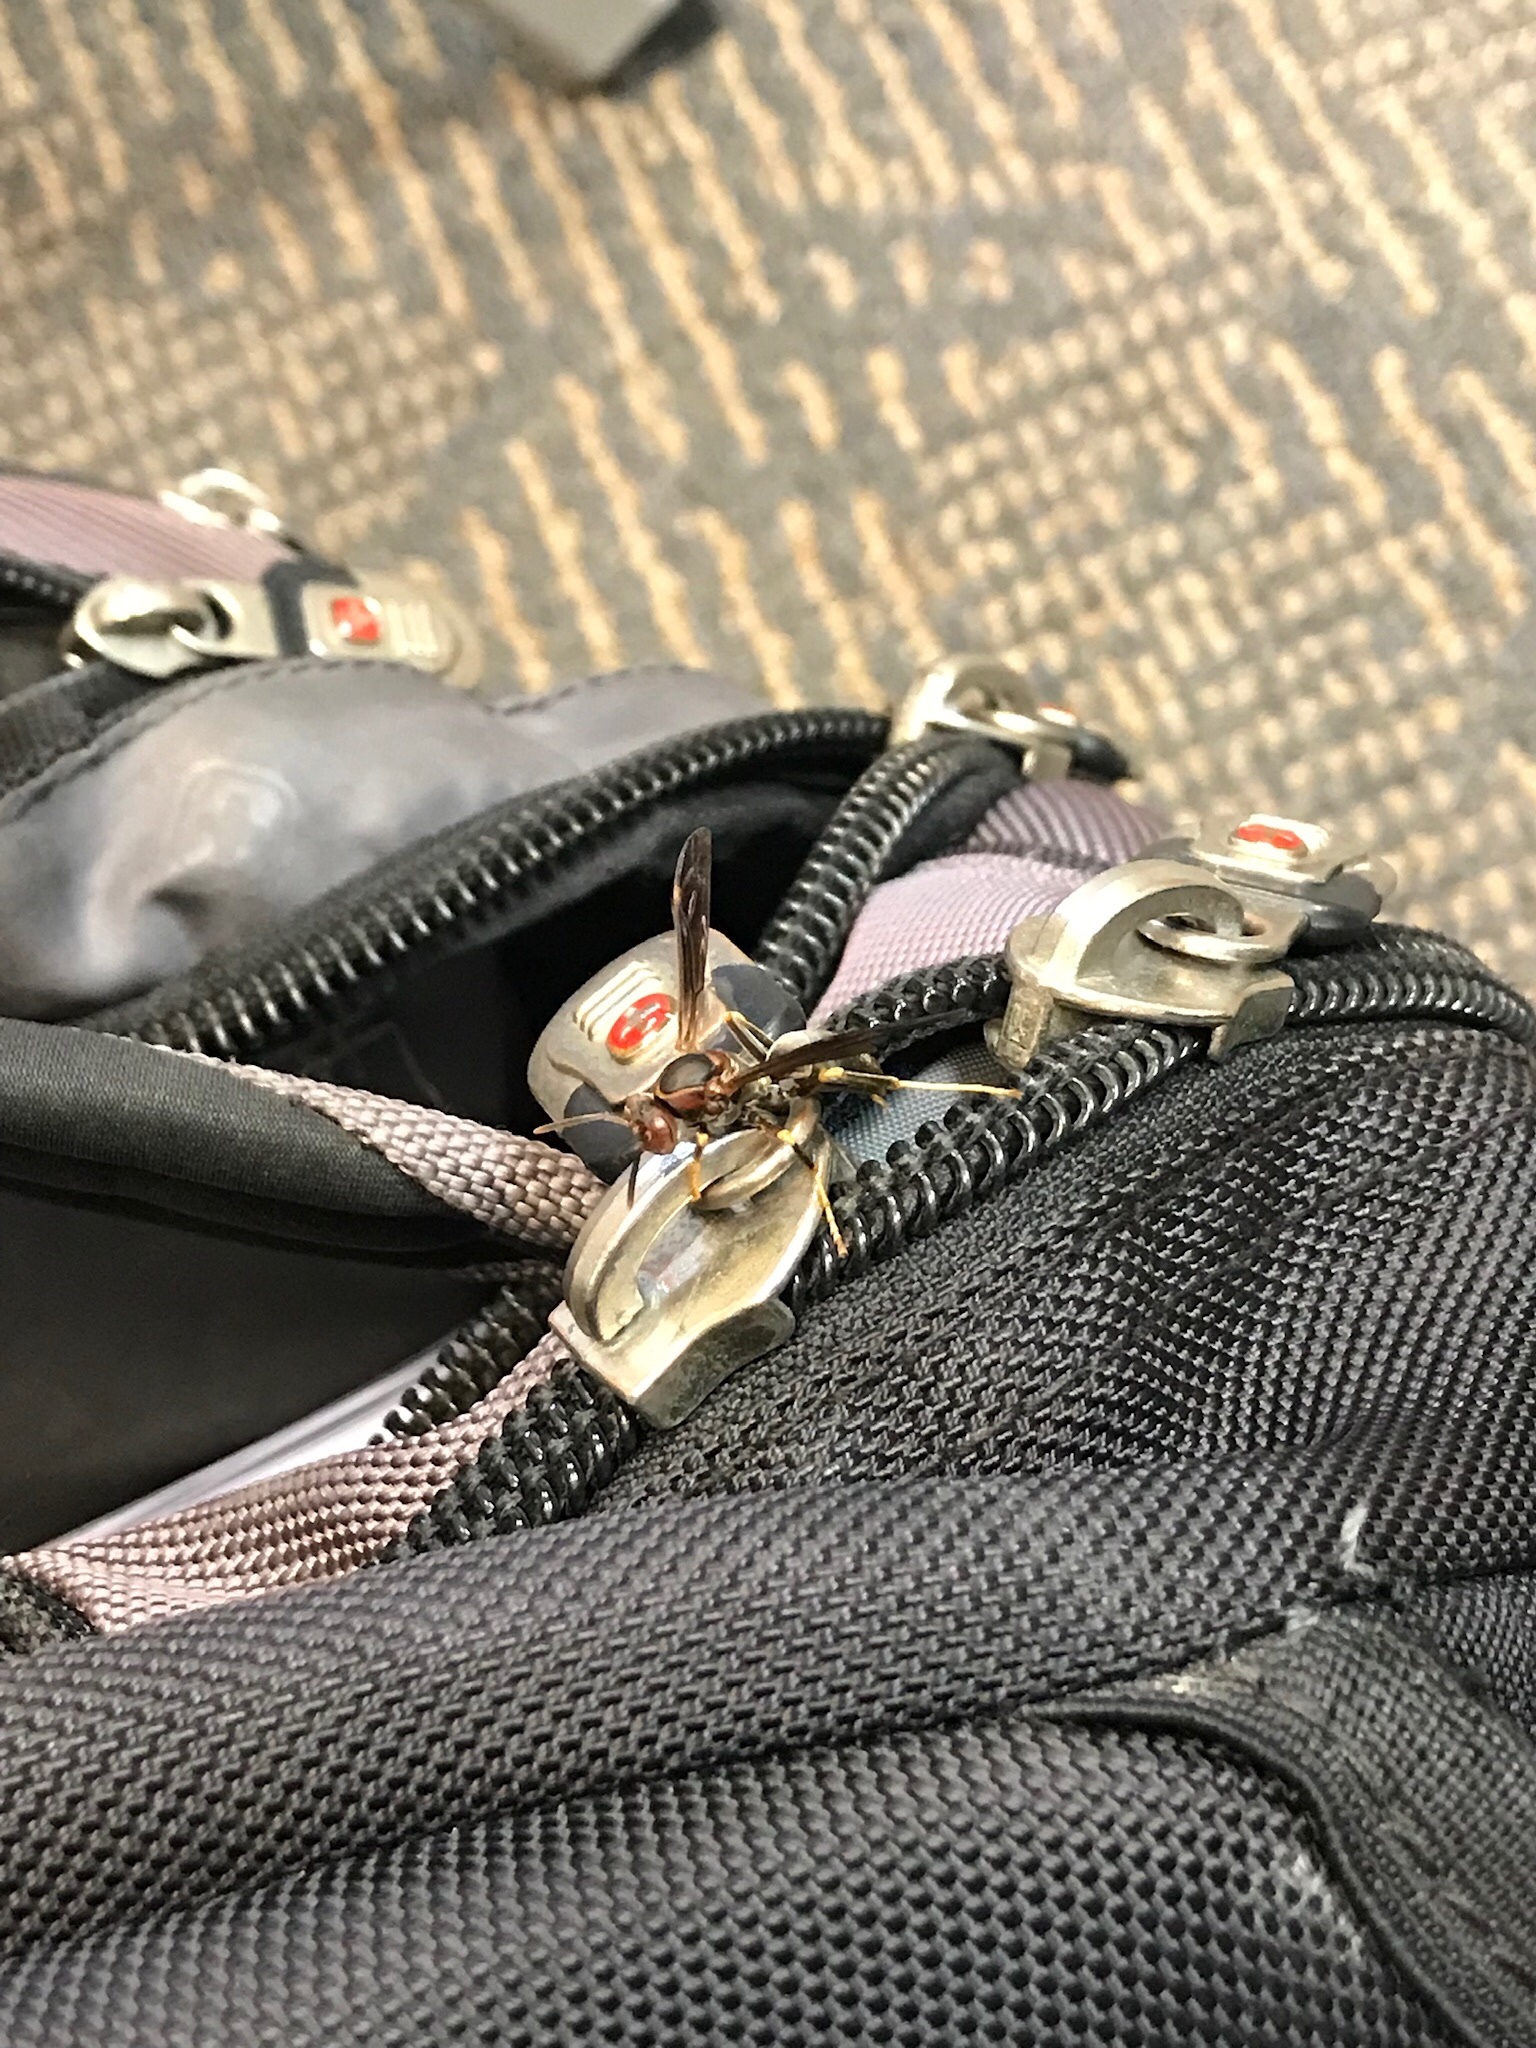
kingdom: Animalia
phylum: Arthropoda
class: Insecta
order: Hymenoptera
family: Eumenidae
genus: Polistes
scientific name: Polistes metricus
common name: Metric paper wasp
